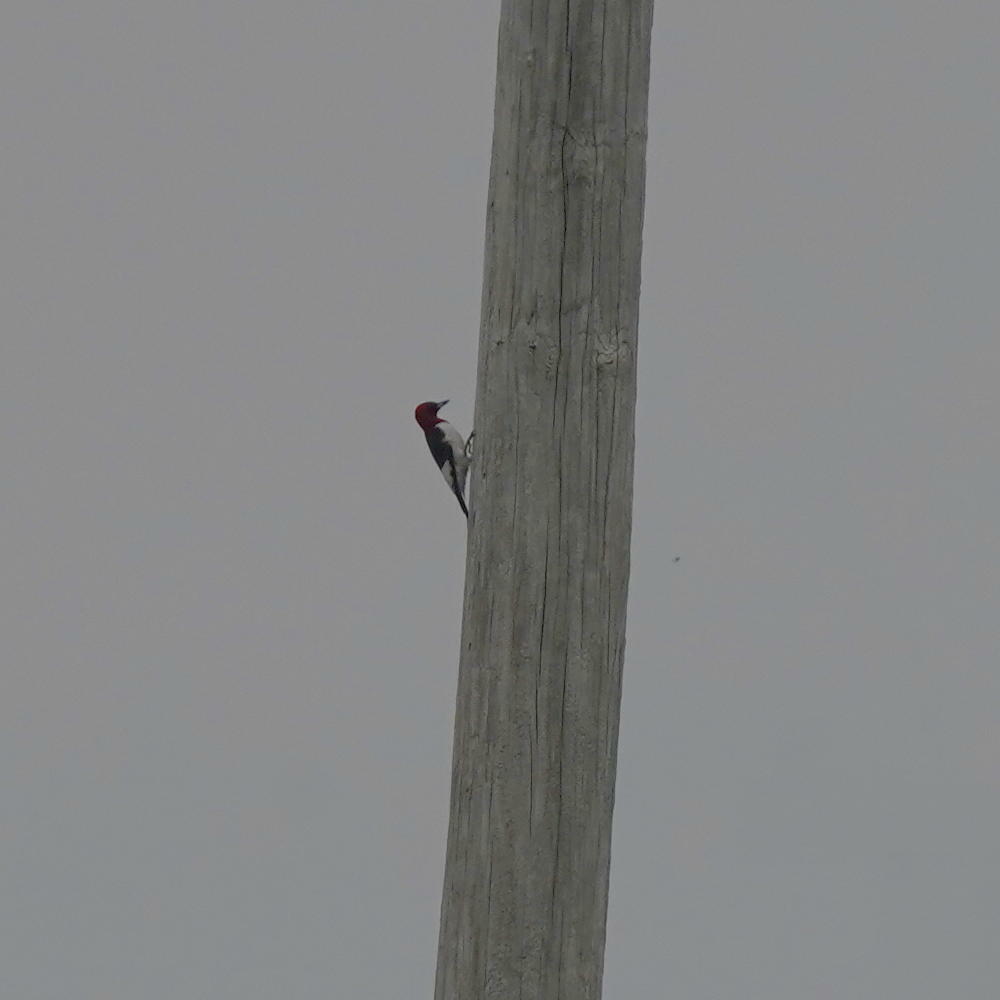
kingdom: Animalia
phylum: Chordata
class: Aves
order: Piciformes
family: Picidae
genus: Melanerpes
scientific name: Melanerpes erythrocephalus
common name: Red-headed woodpecker
